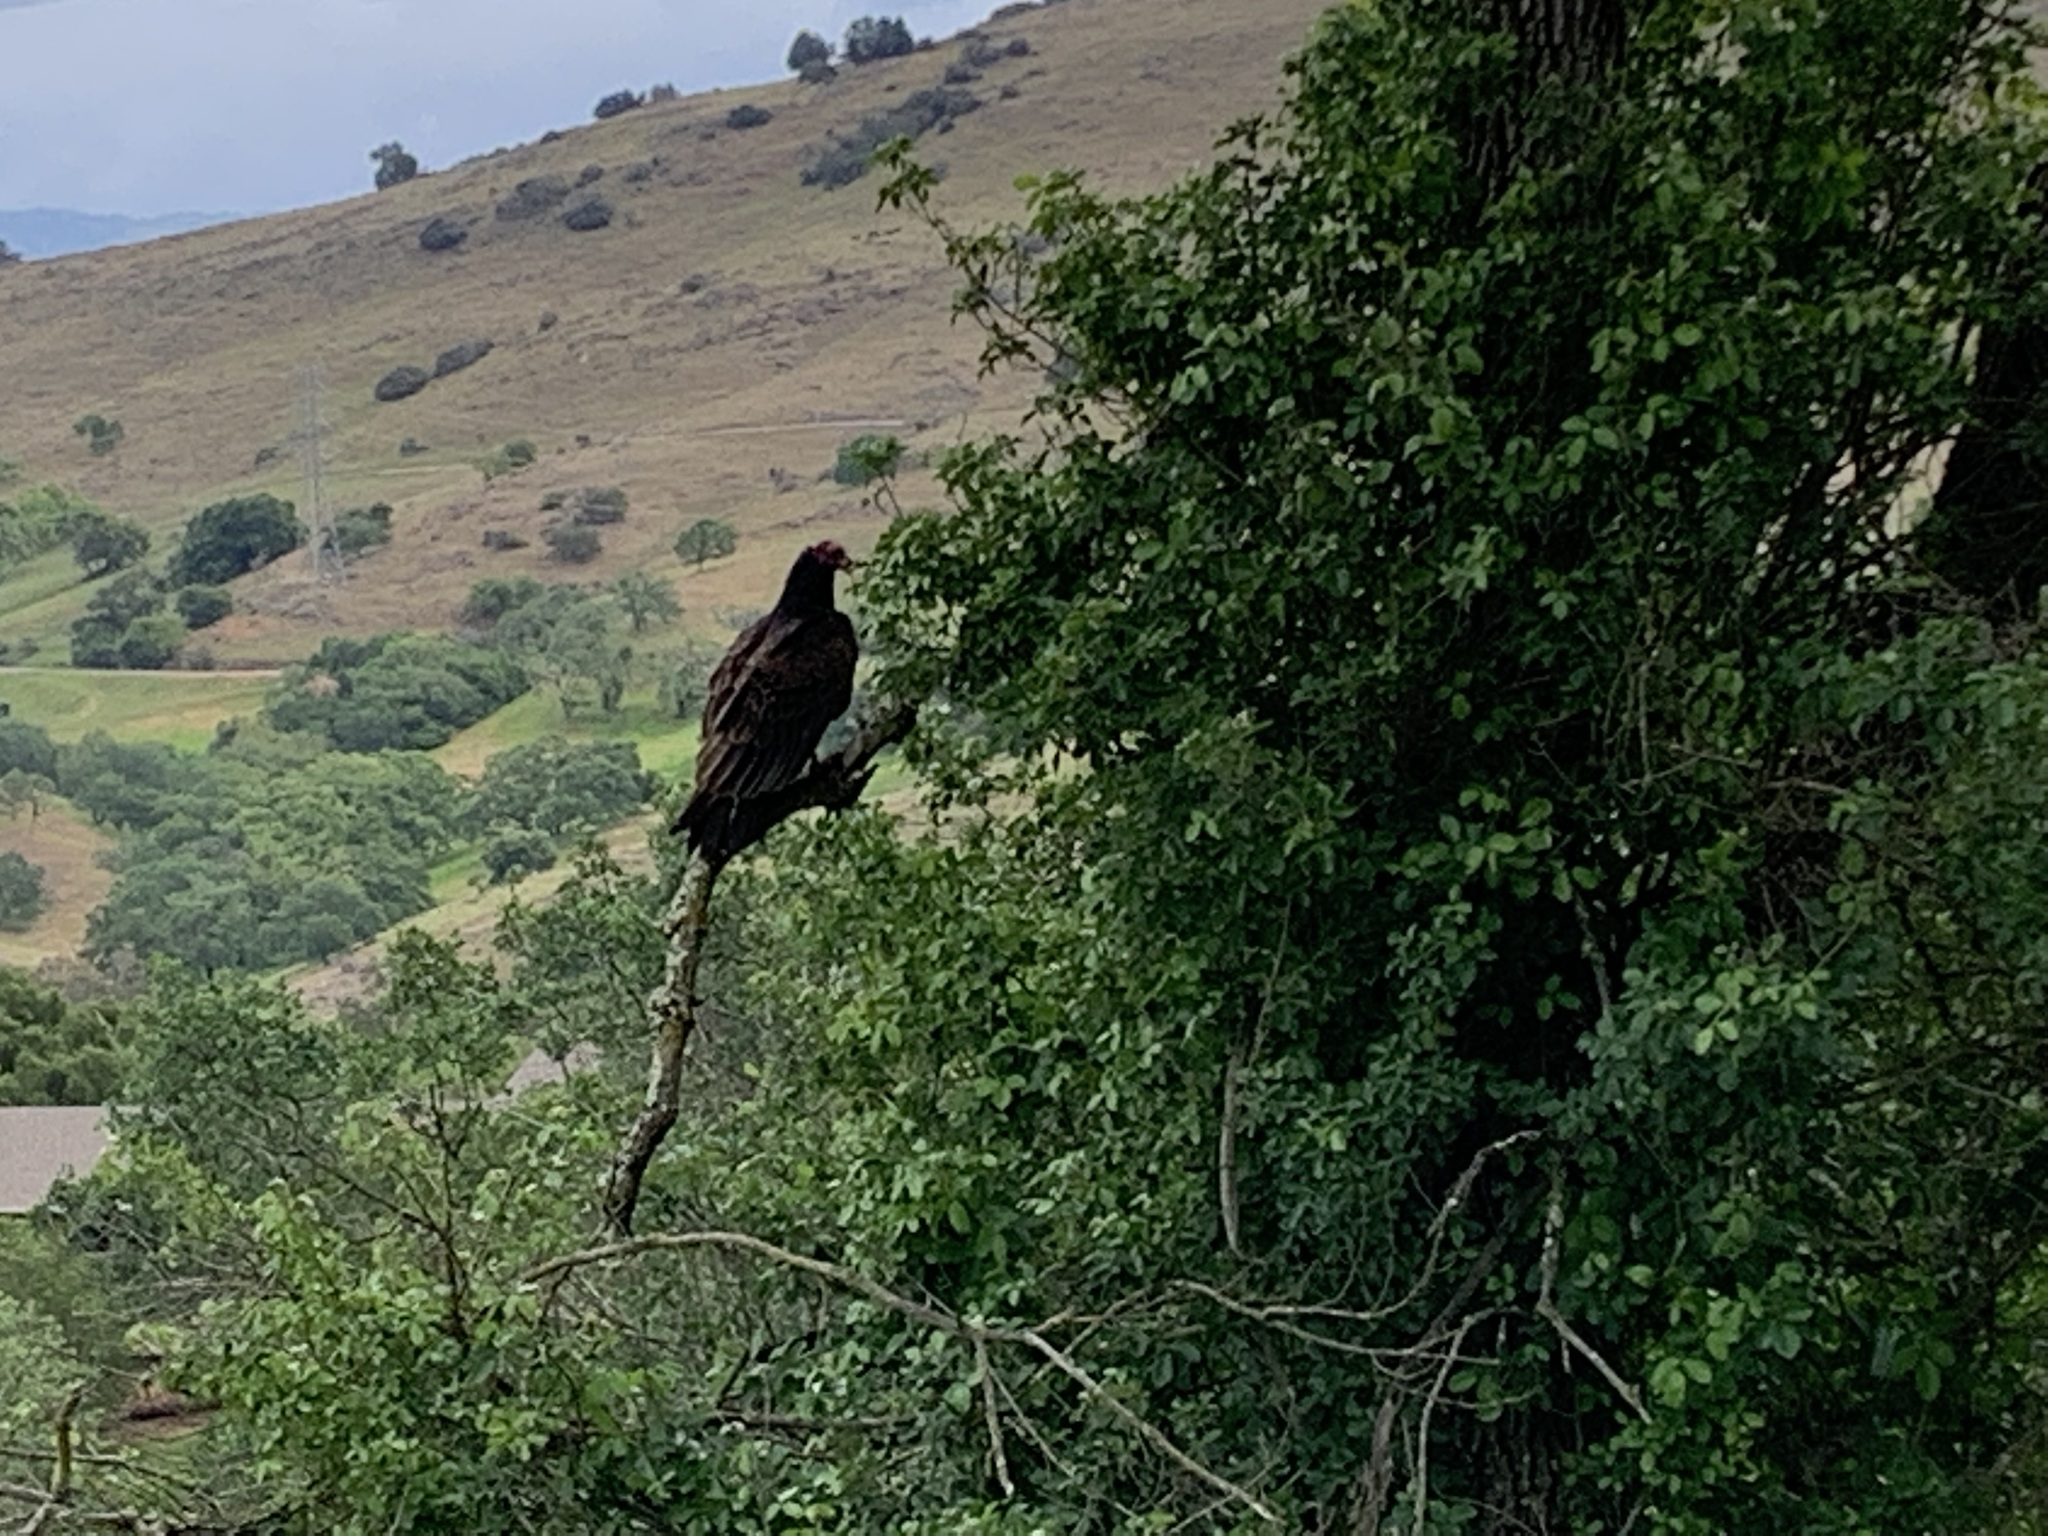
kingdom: Animalia
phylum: Chordata
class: Aves
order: Accipitriformes
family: Cathartidae
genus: Cathartes
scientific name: Cathartes aura
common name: Turkey vulture
